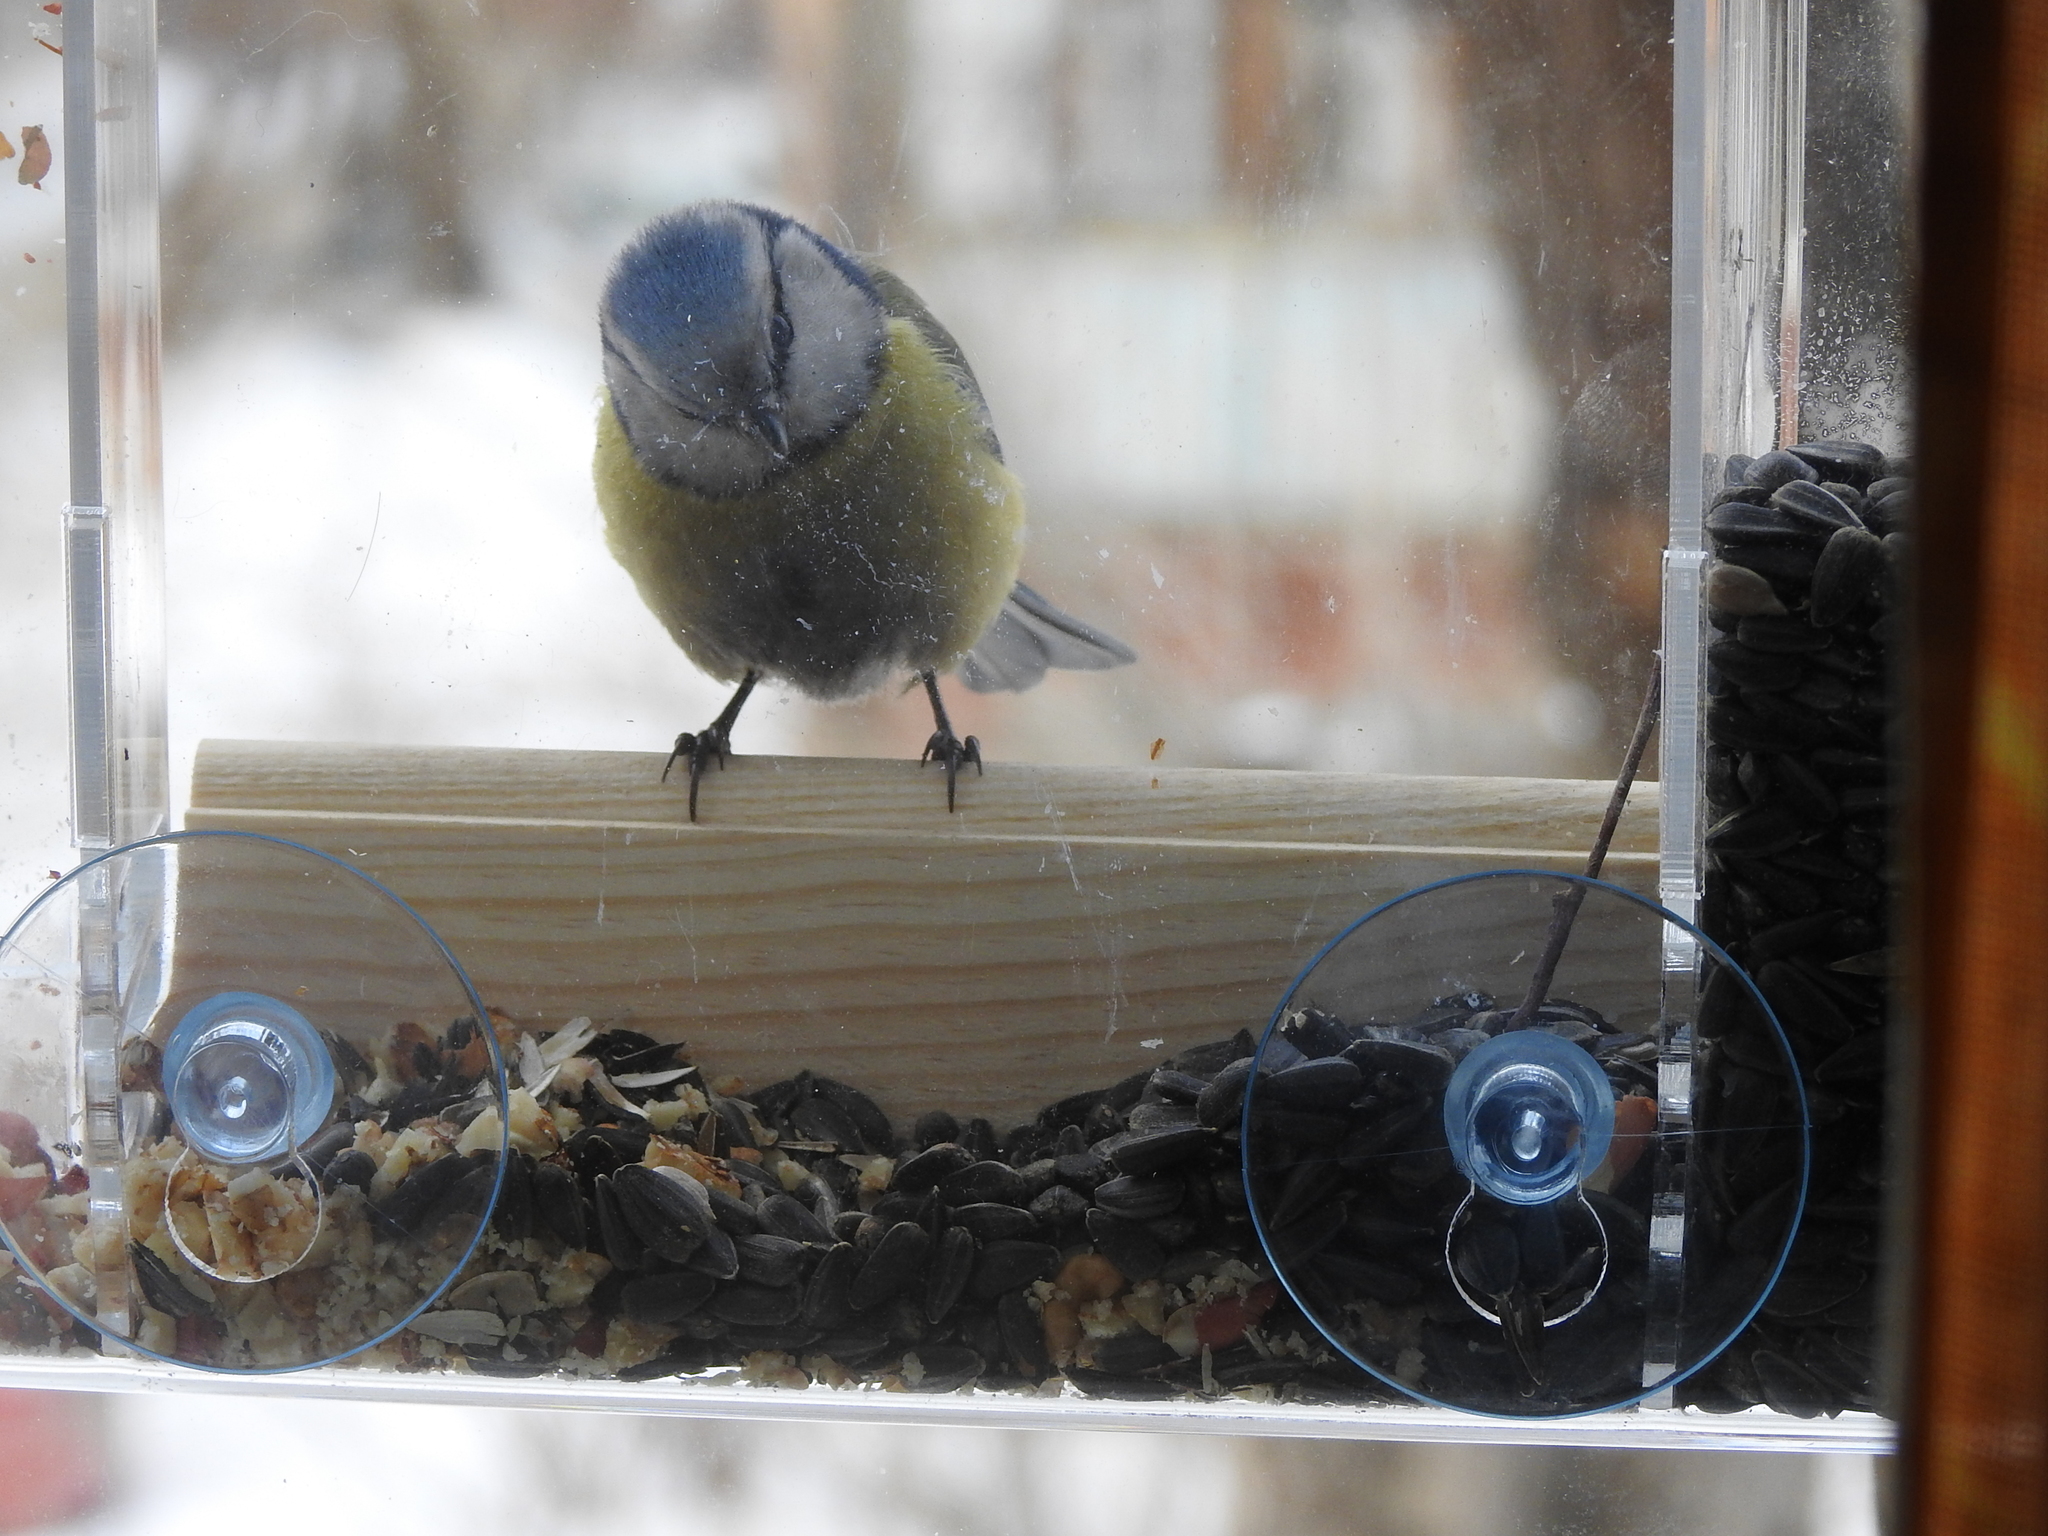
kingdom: Animalia
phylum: Chordata
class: Aves
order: Passeriformes
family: Paridae
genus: Cyanistes
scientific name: Cyanistes caeruleus
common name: Eurasian blue tit
